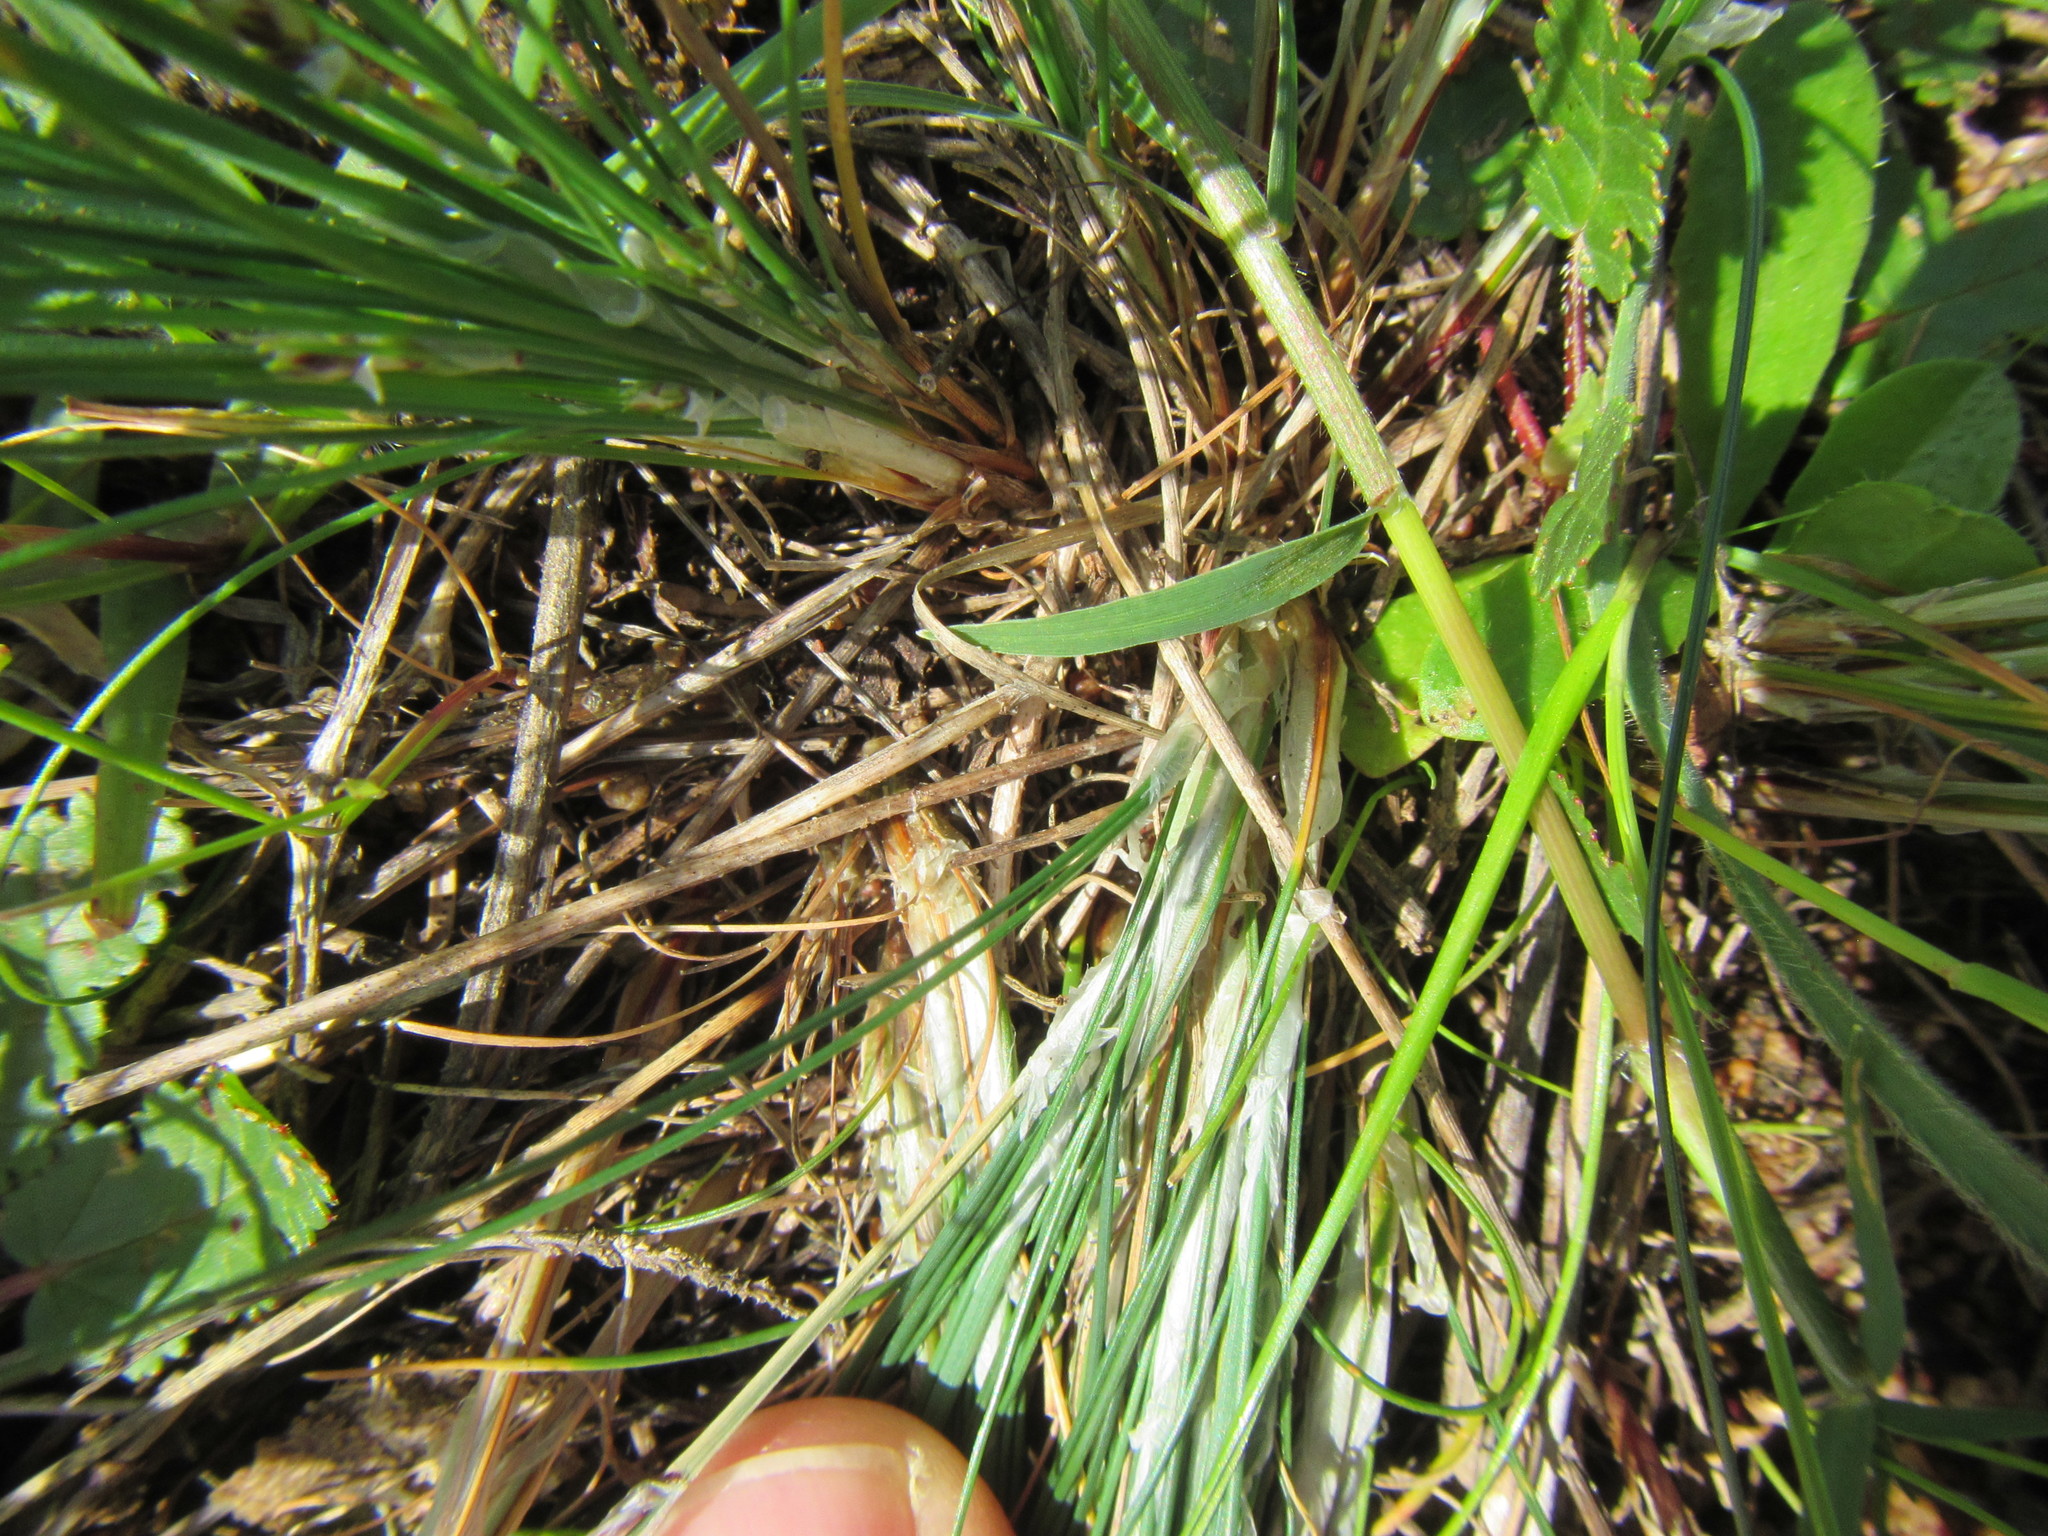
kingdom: Plantae
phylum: Tracheophyta
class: Liliopsida
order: Poales
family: Cyperaceae
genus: Ficinia
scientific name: Ficinia bulbosa
